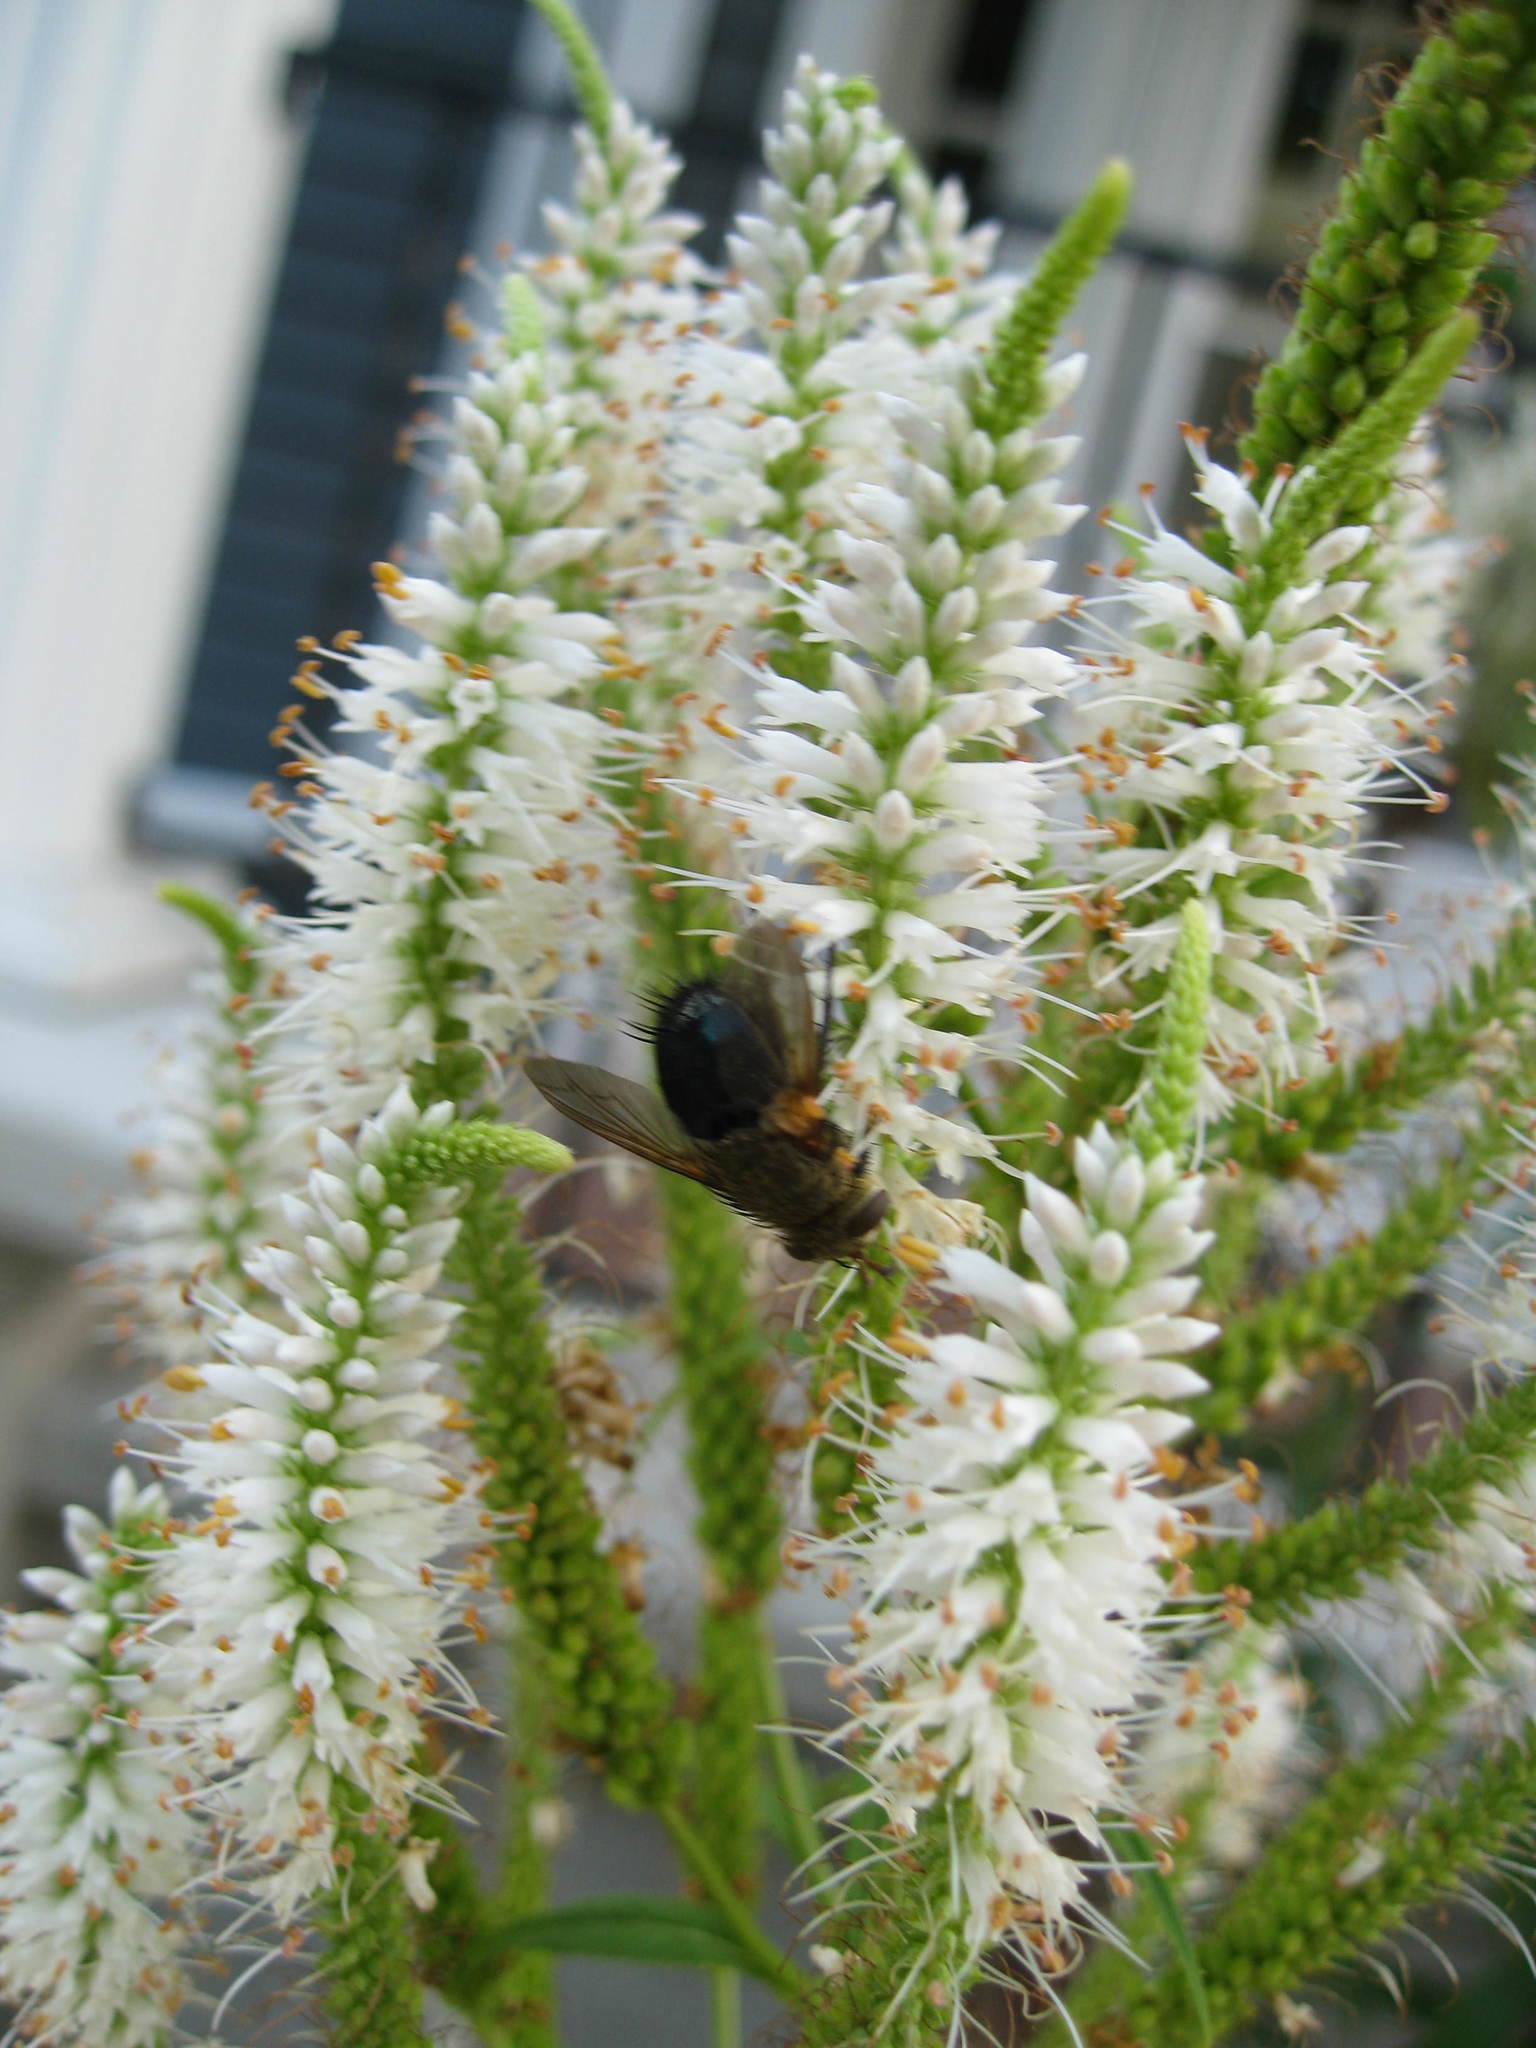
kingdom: Plantae
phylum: Tracheophyta
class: Magnoliopsida
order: Lamiales
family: Plantaginaceae
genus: Veronicastrum
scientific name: Veronicastrum virginicum
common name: Blackroot
